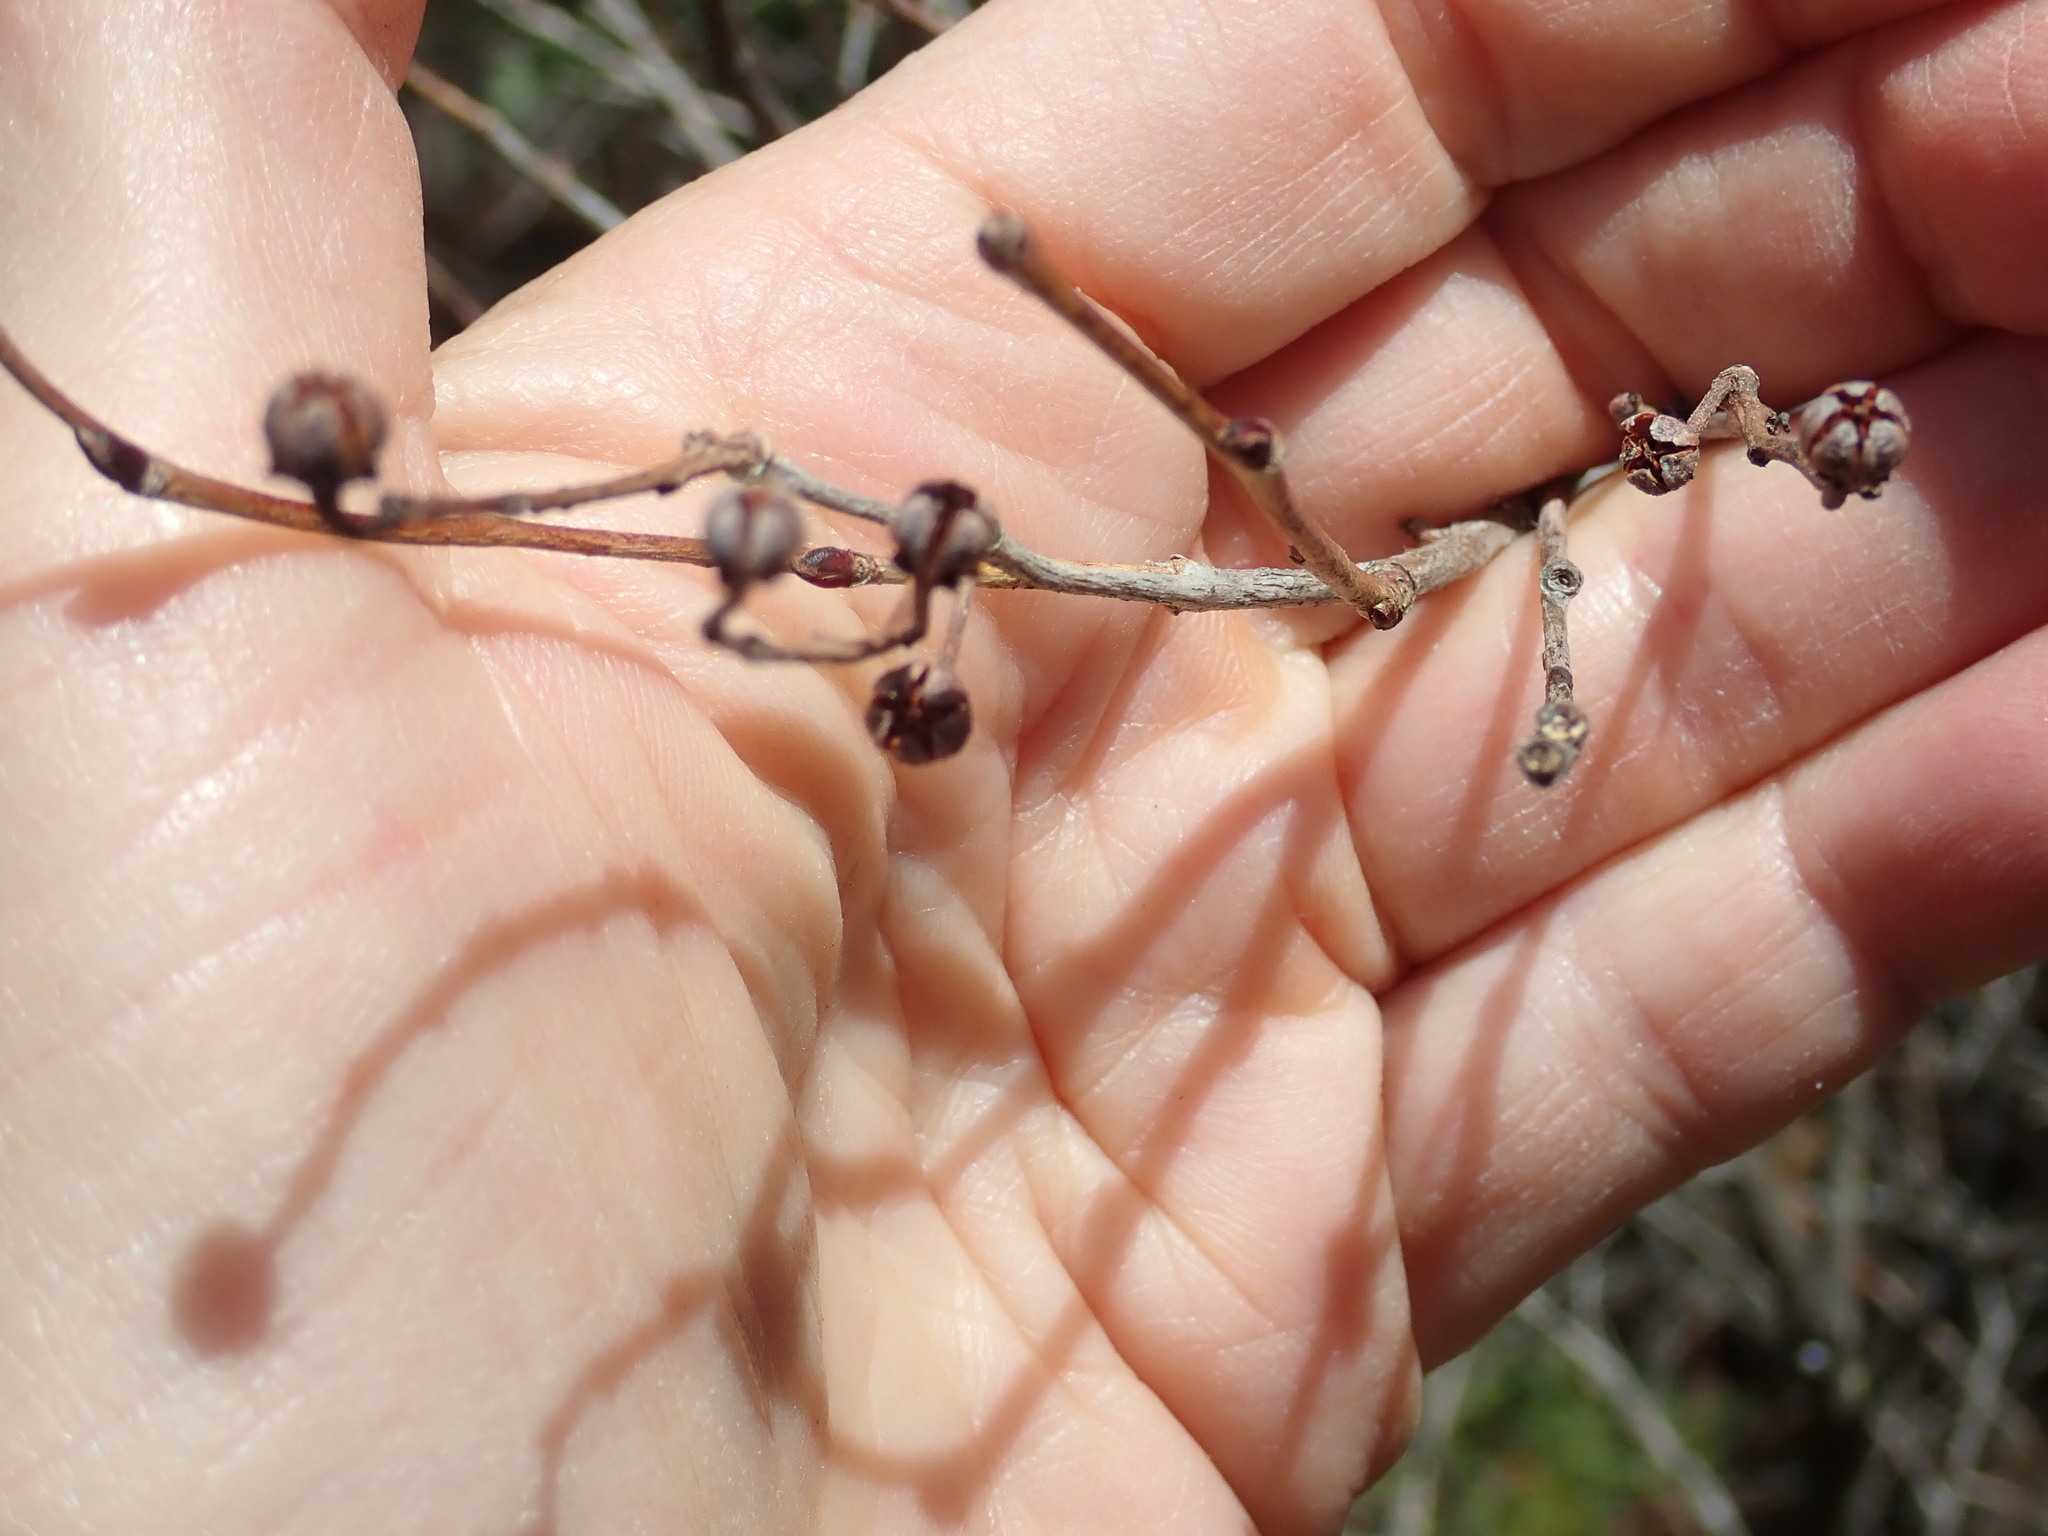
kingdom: Plantae
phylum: Tracheophyta
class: Magnoliopsida
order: Ericales
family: Ericaceae
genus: Lyonia
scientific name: Lyonia ligustrina
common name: Maleberry
